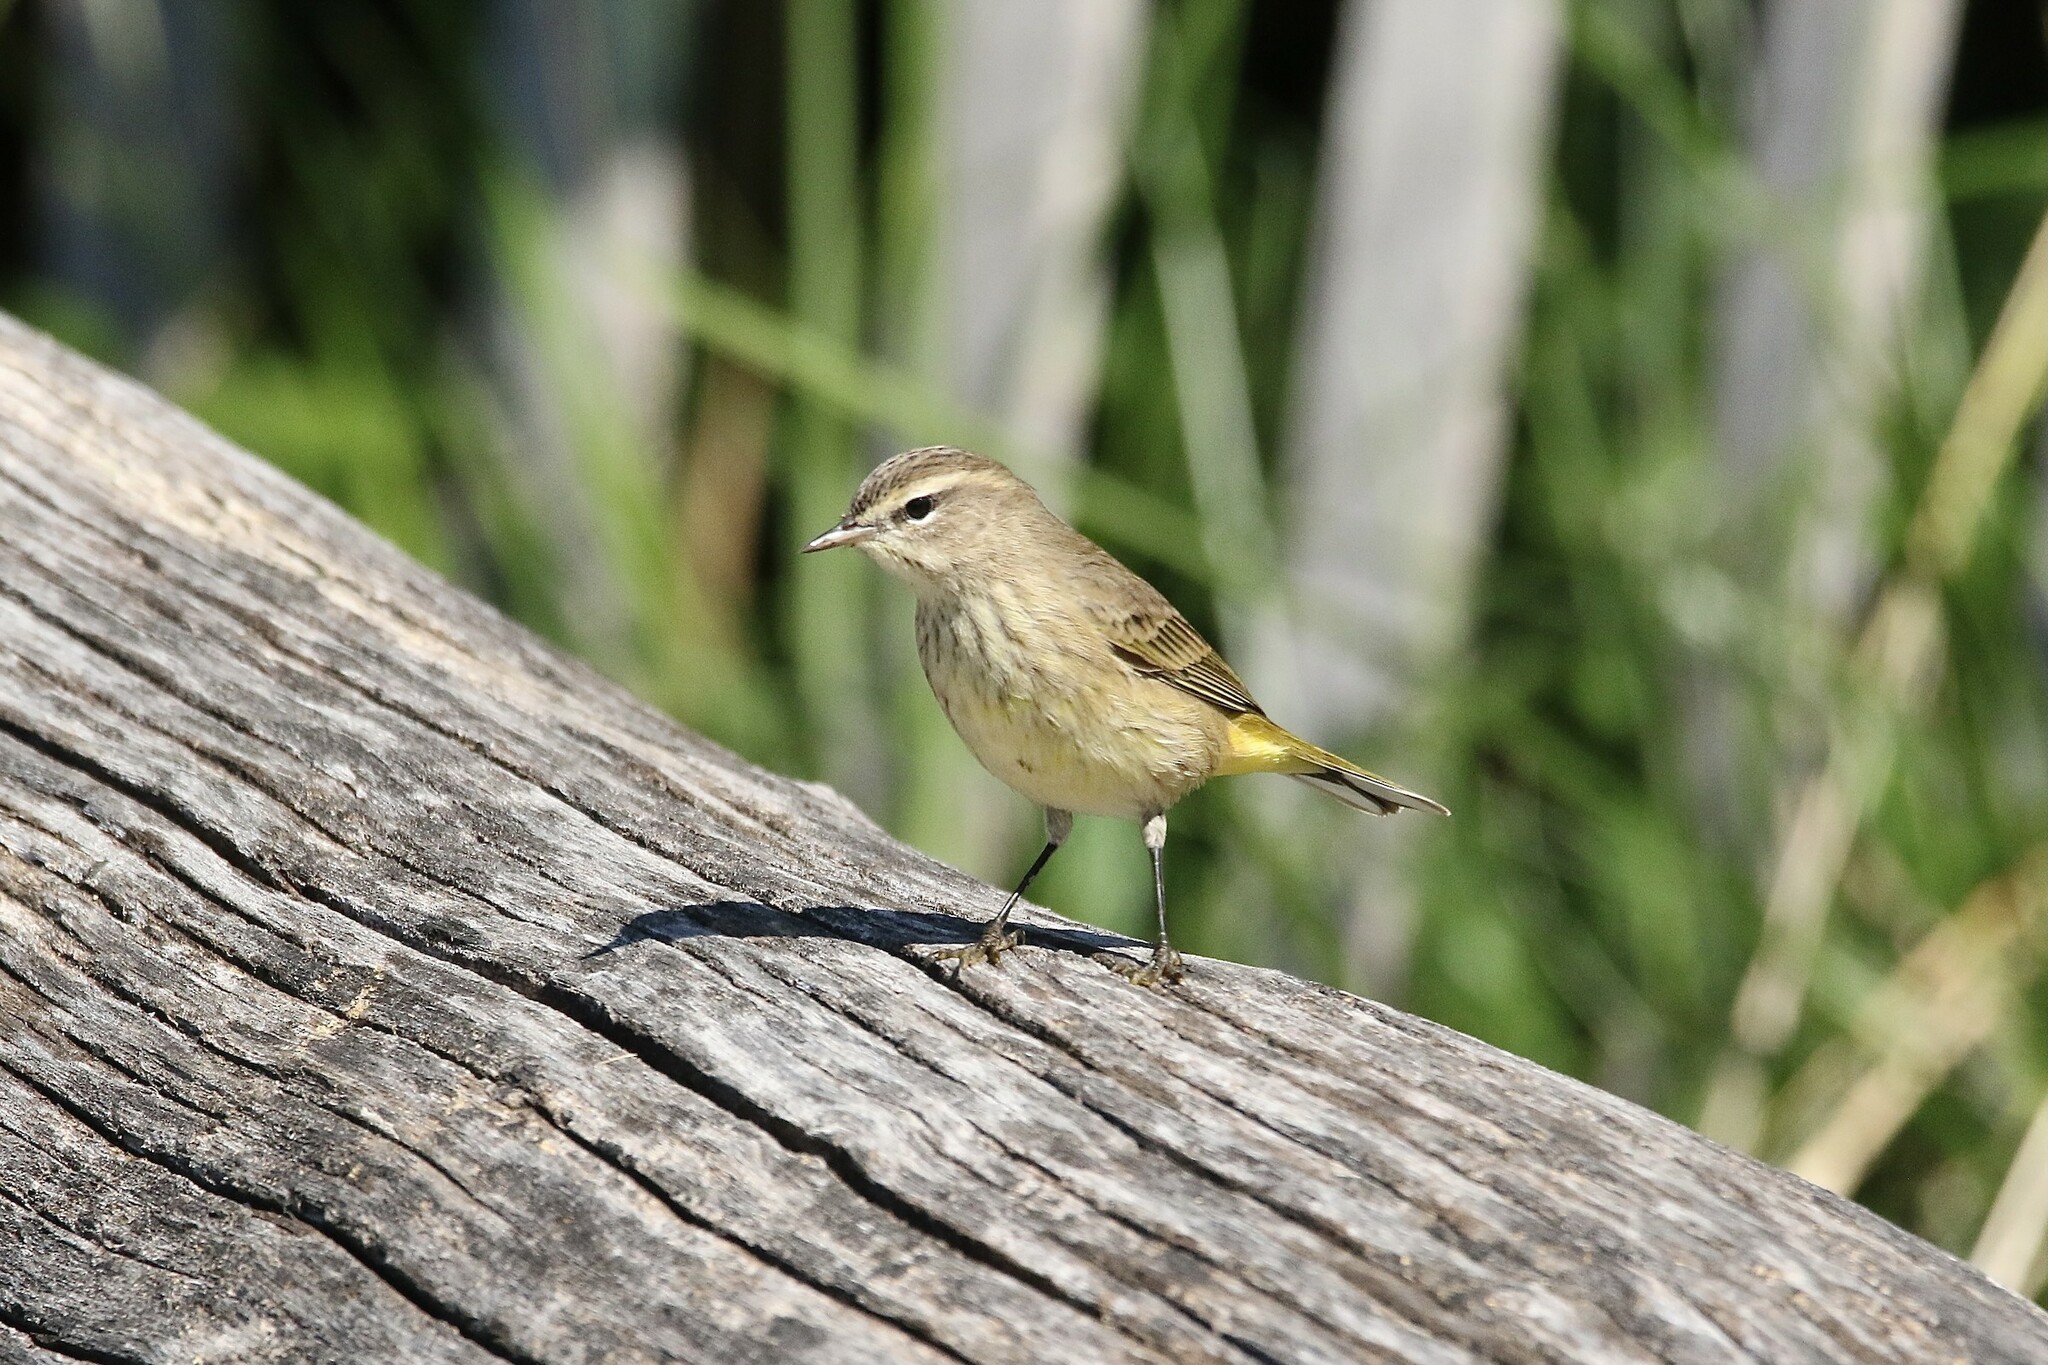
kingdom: Animalia
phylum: Chordata
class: Aves
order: Passeriformes
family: Parulidae
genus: Setophaga
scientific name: Setophaga palmarum
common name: Palm warbler
